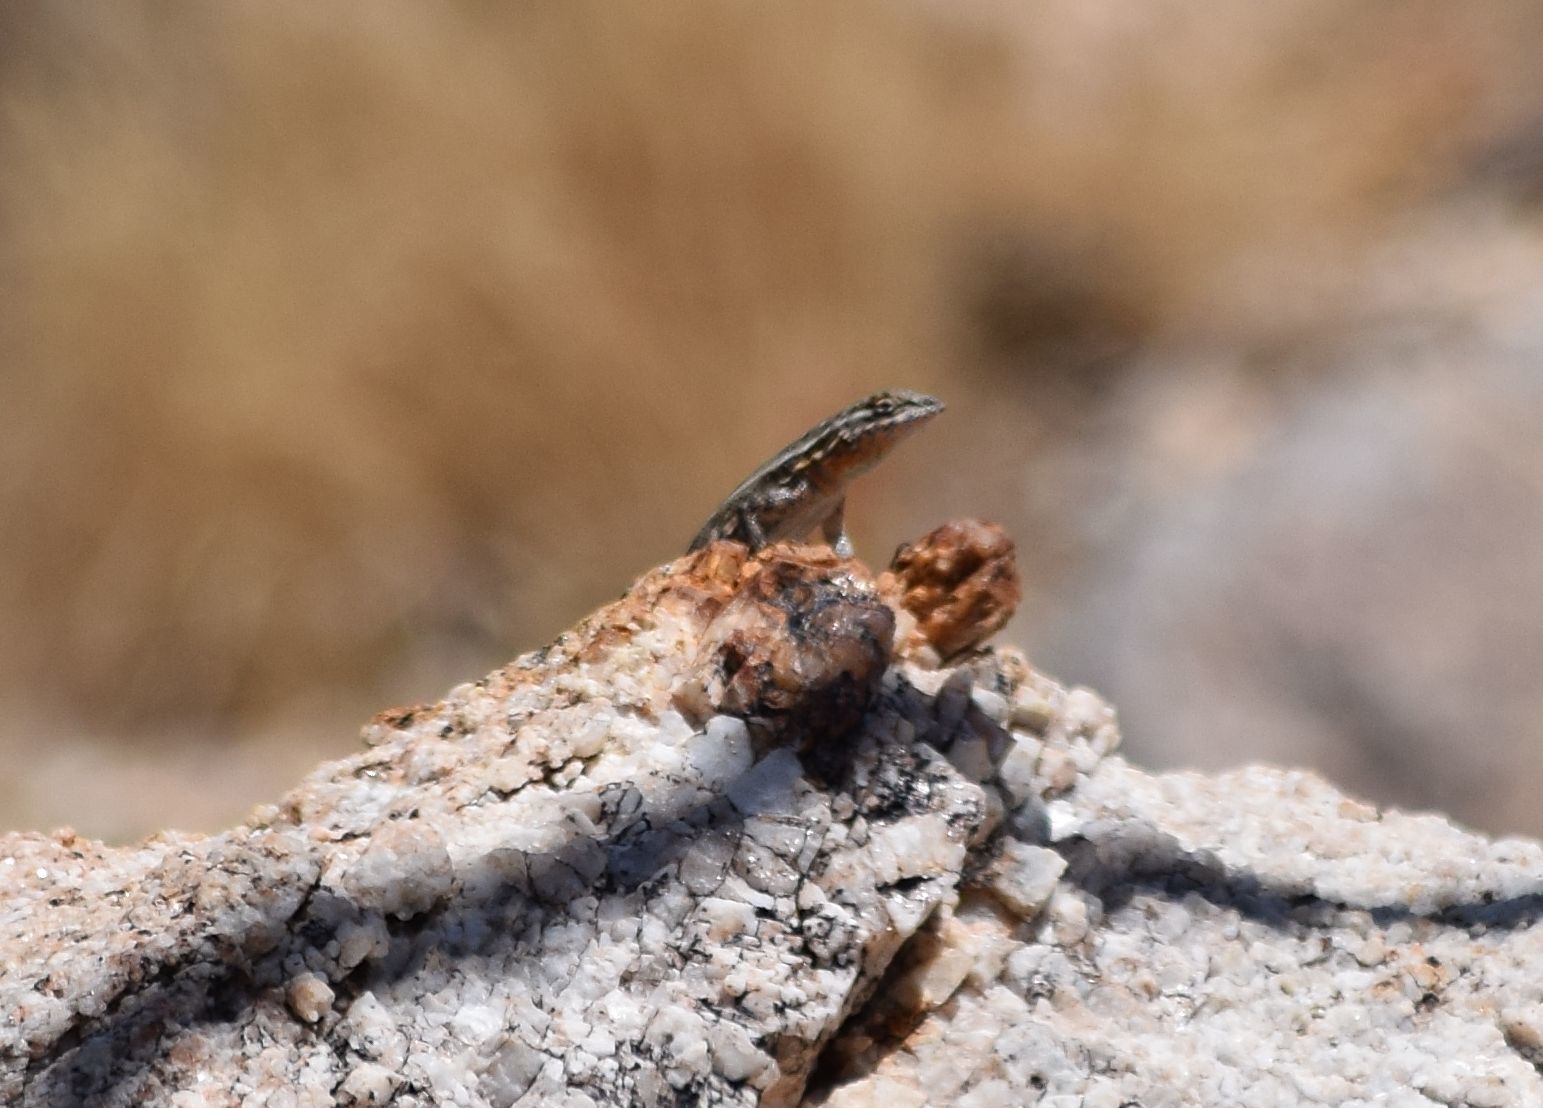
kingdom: Animalia
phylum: Chordata
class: Squamata
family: Phrynosomatidae
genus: Uta
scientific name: Uta stansburiana
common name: Side-blotched lizard
